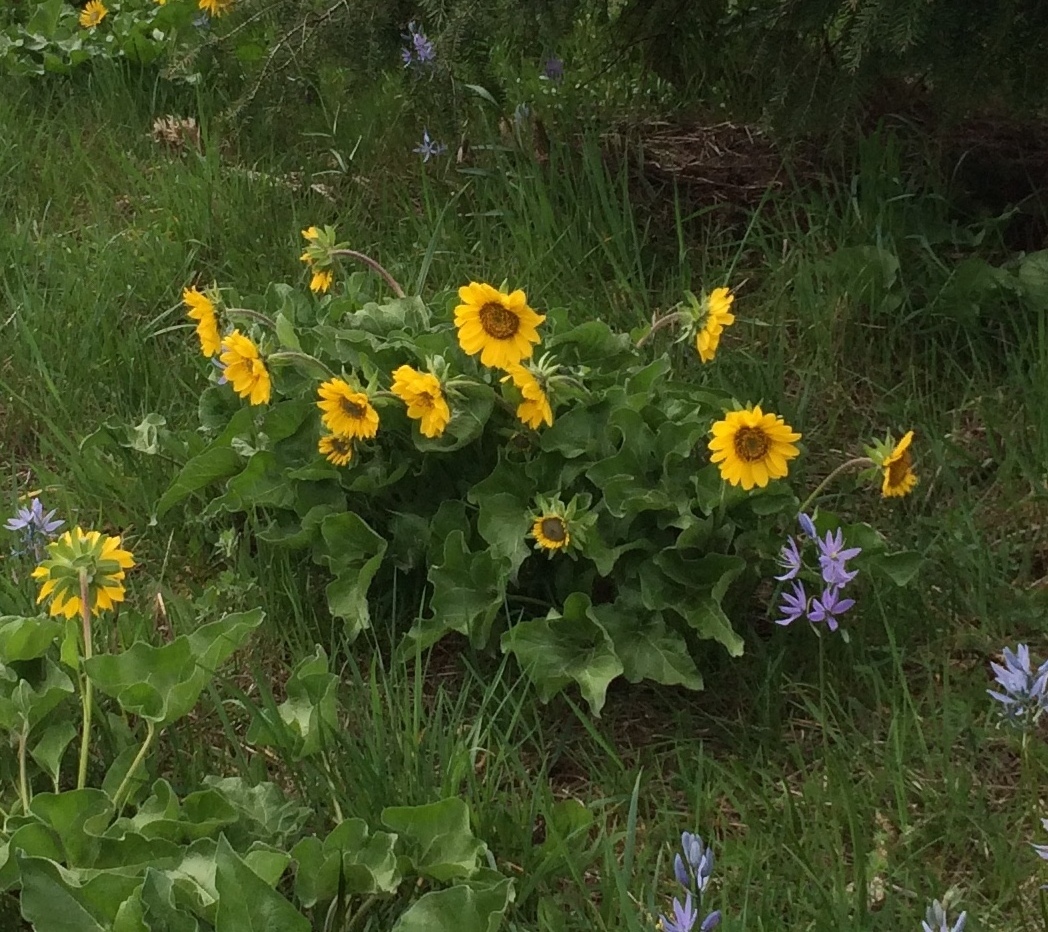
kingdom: Plantae
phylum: Tracheophyta
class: Magnoliopsida
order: Asterales
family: Asteraceae
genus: Balsamorhiza
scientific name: Balsamorhiza deltoidea
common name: Deltoid balsamroot
